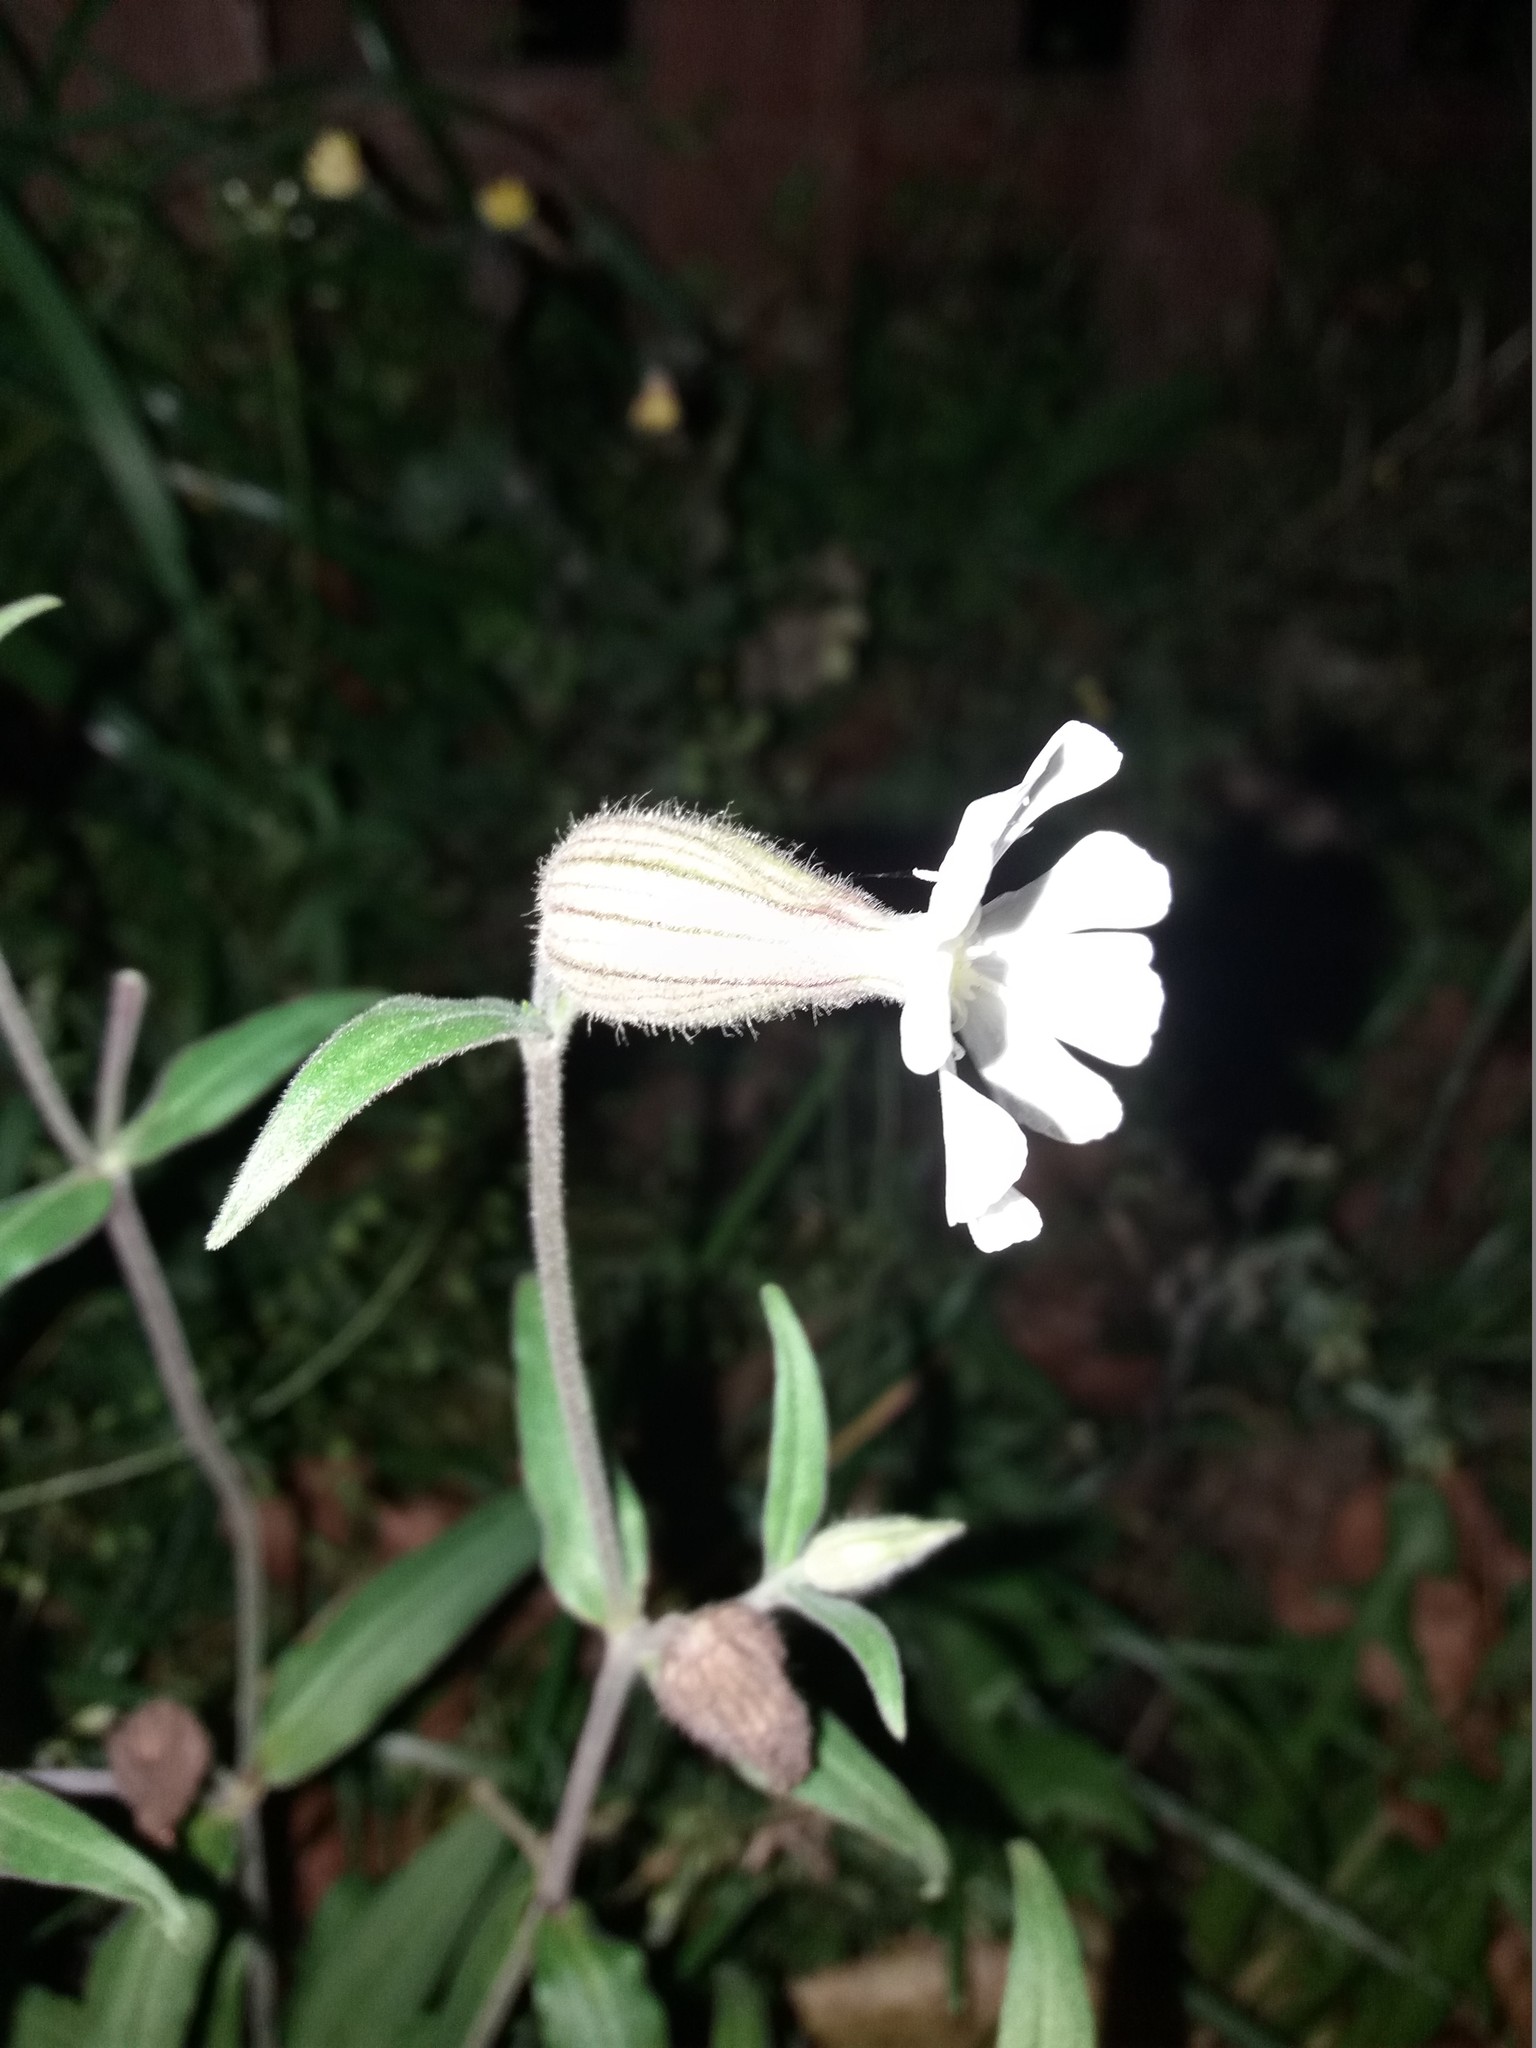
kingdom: Plantae
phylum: Tracheophyta
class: Magnoliopsida
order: Caryophyllales
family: Caryophyllaceae
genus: Silene
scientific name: Silene latifolia
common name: White campion
